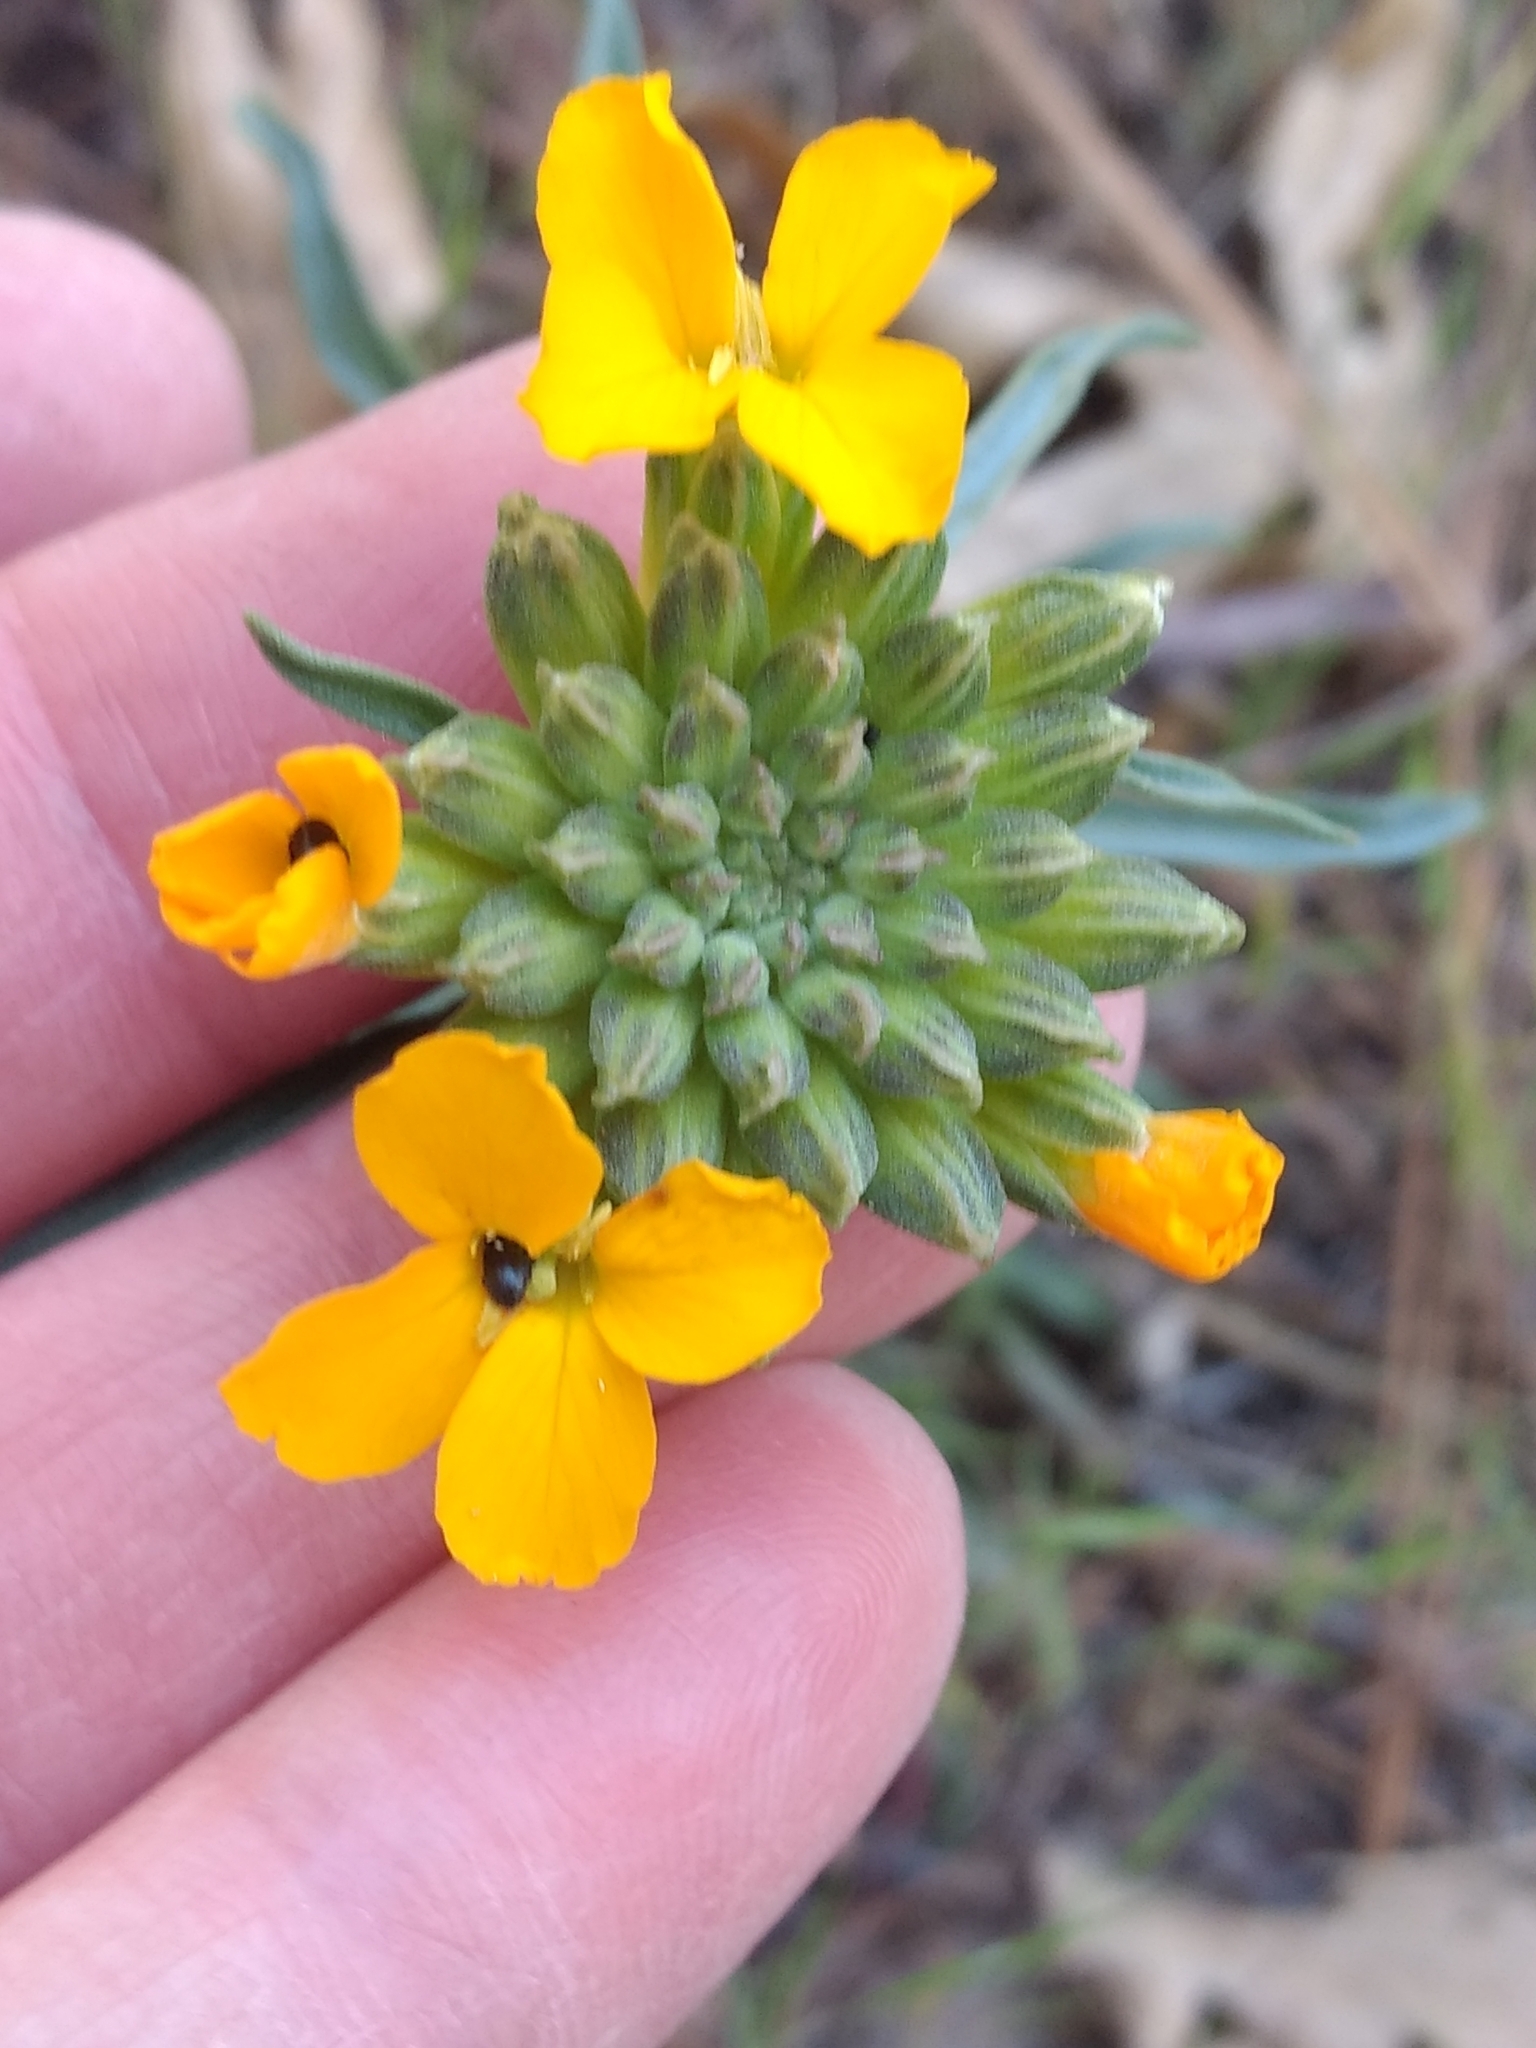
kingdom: Plantae
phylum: Tracheophyta
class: Magnoliopsida
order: Brassicales
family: Brassicaceae
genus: Erysimum
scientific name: Erysimum capitatum
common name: Western wallflower
